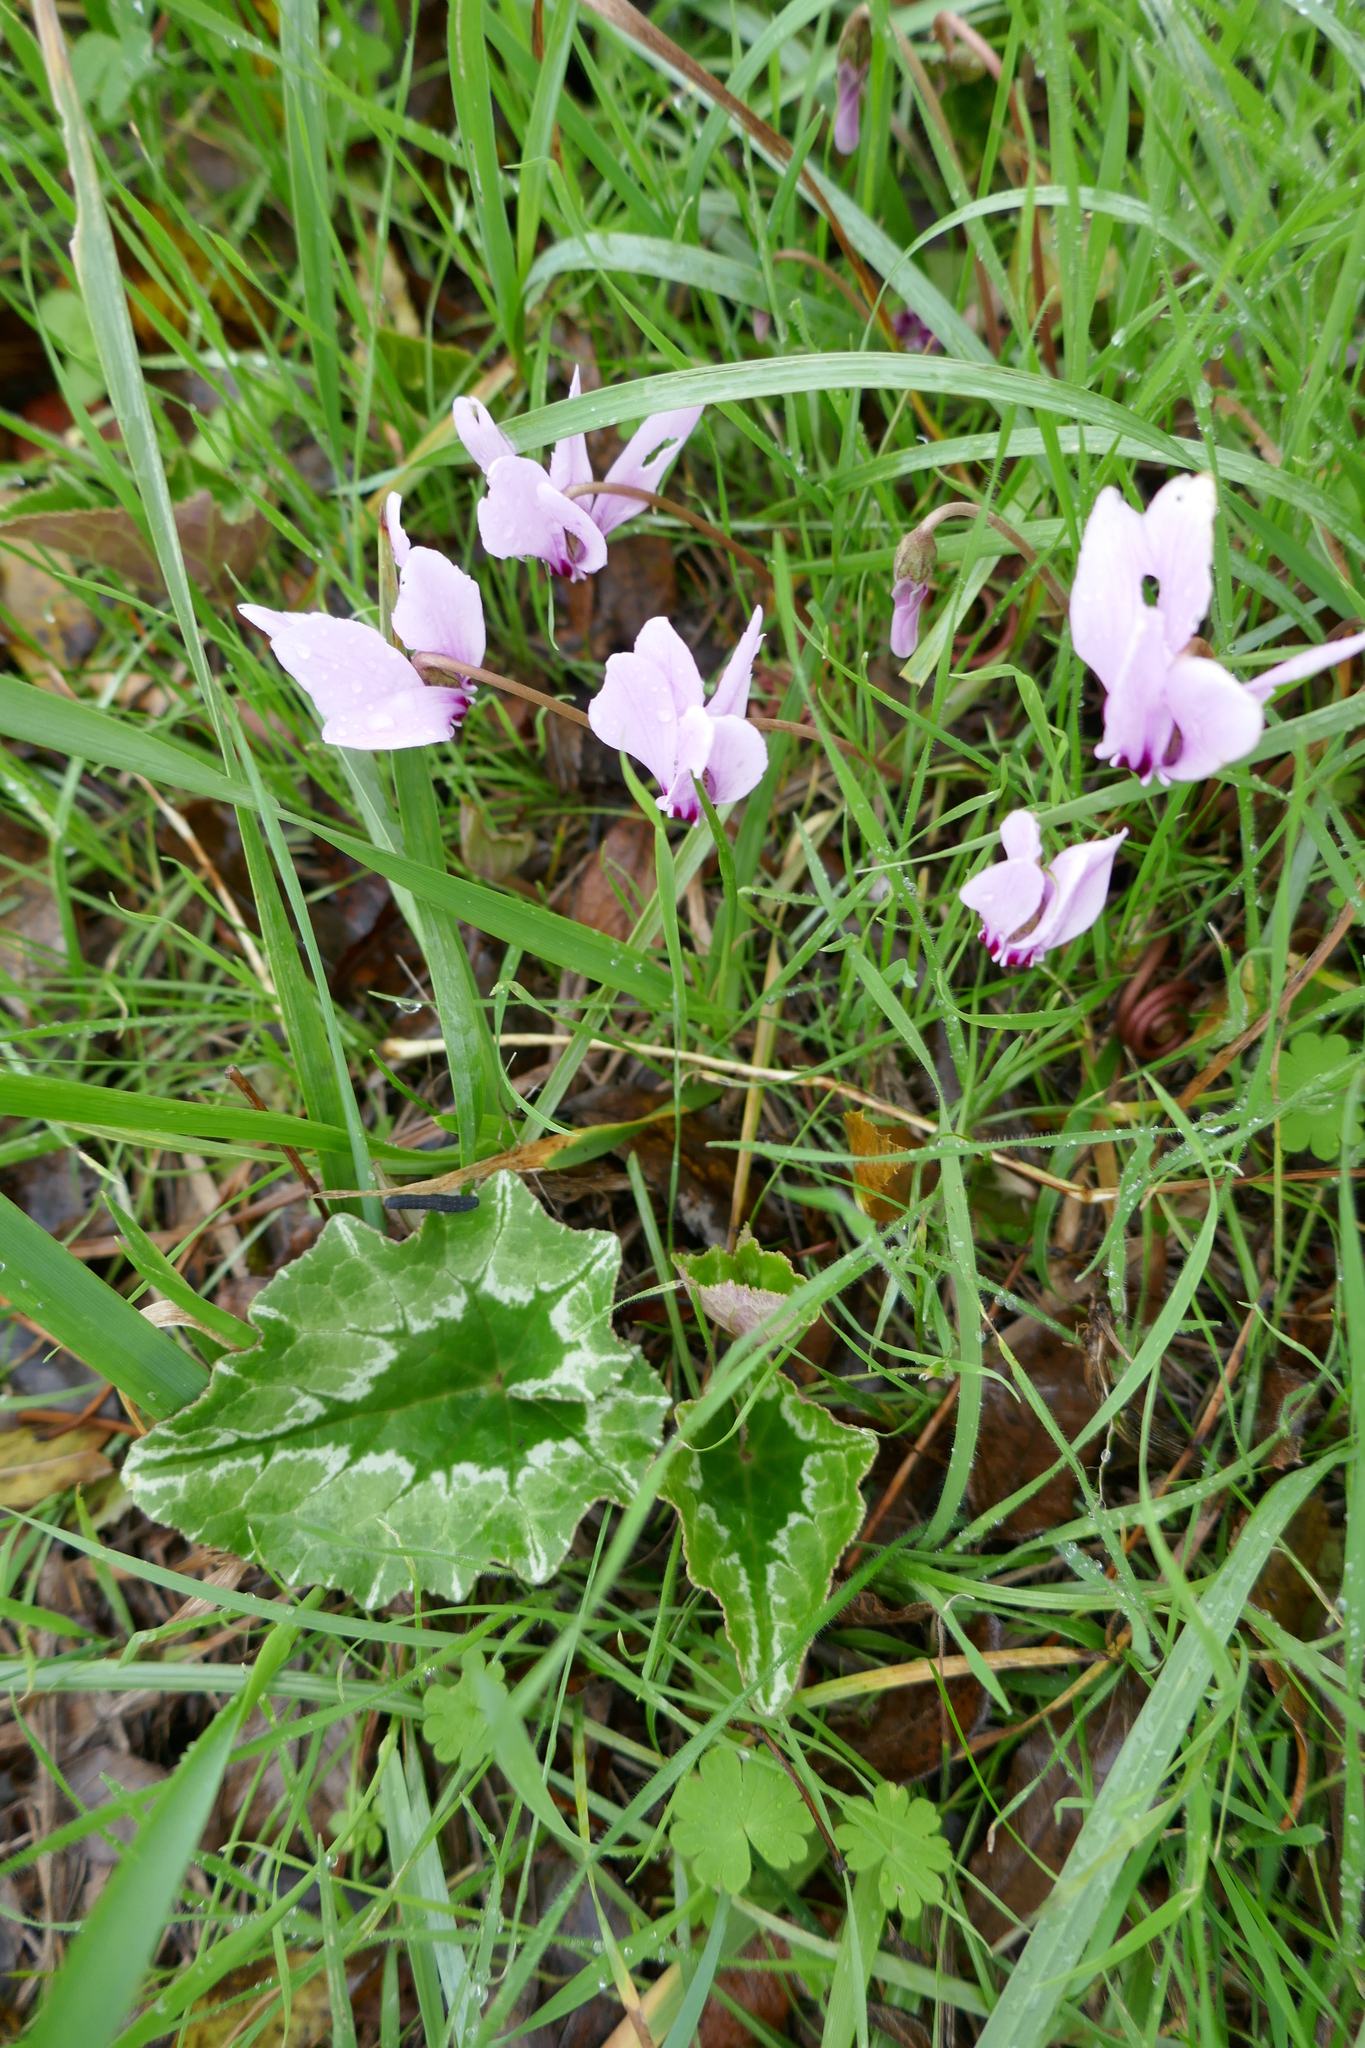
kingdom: Plantae
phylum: Tracheophyta
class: Magnoliopsida
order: Ericales
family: Primulaceae
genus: Cyclamen
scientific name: Cyclamen hederifolium
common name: Sowbread
